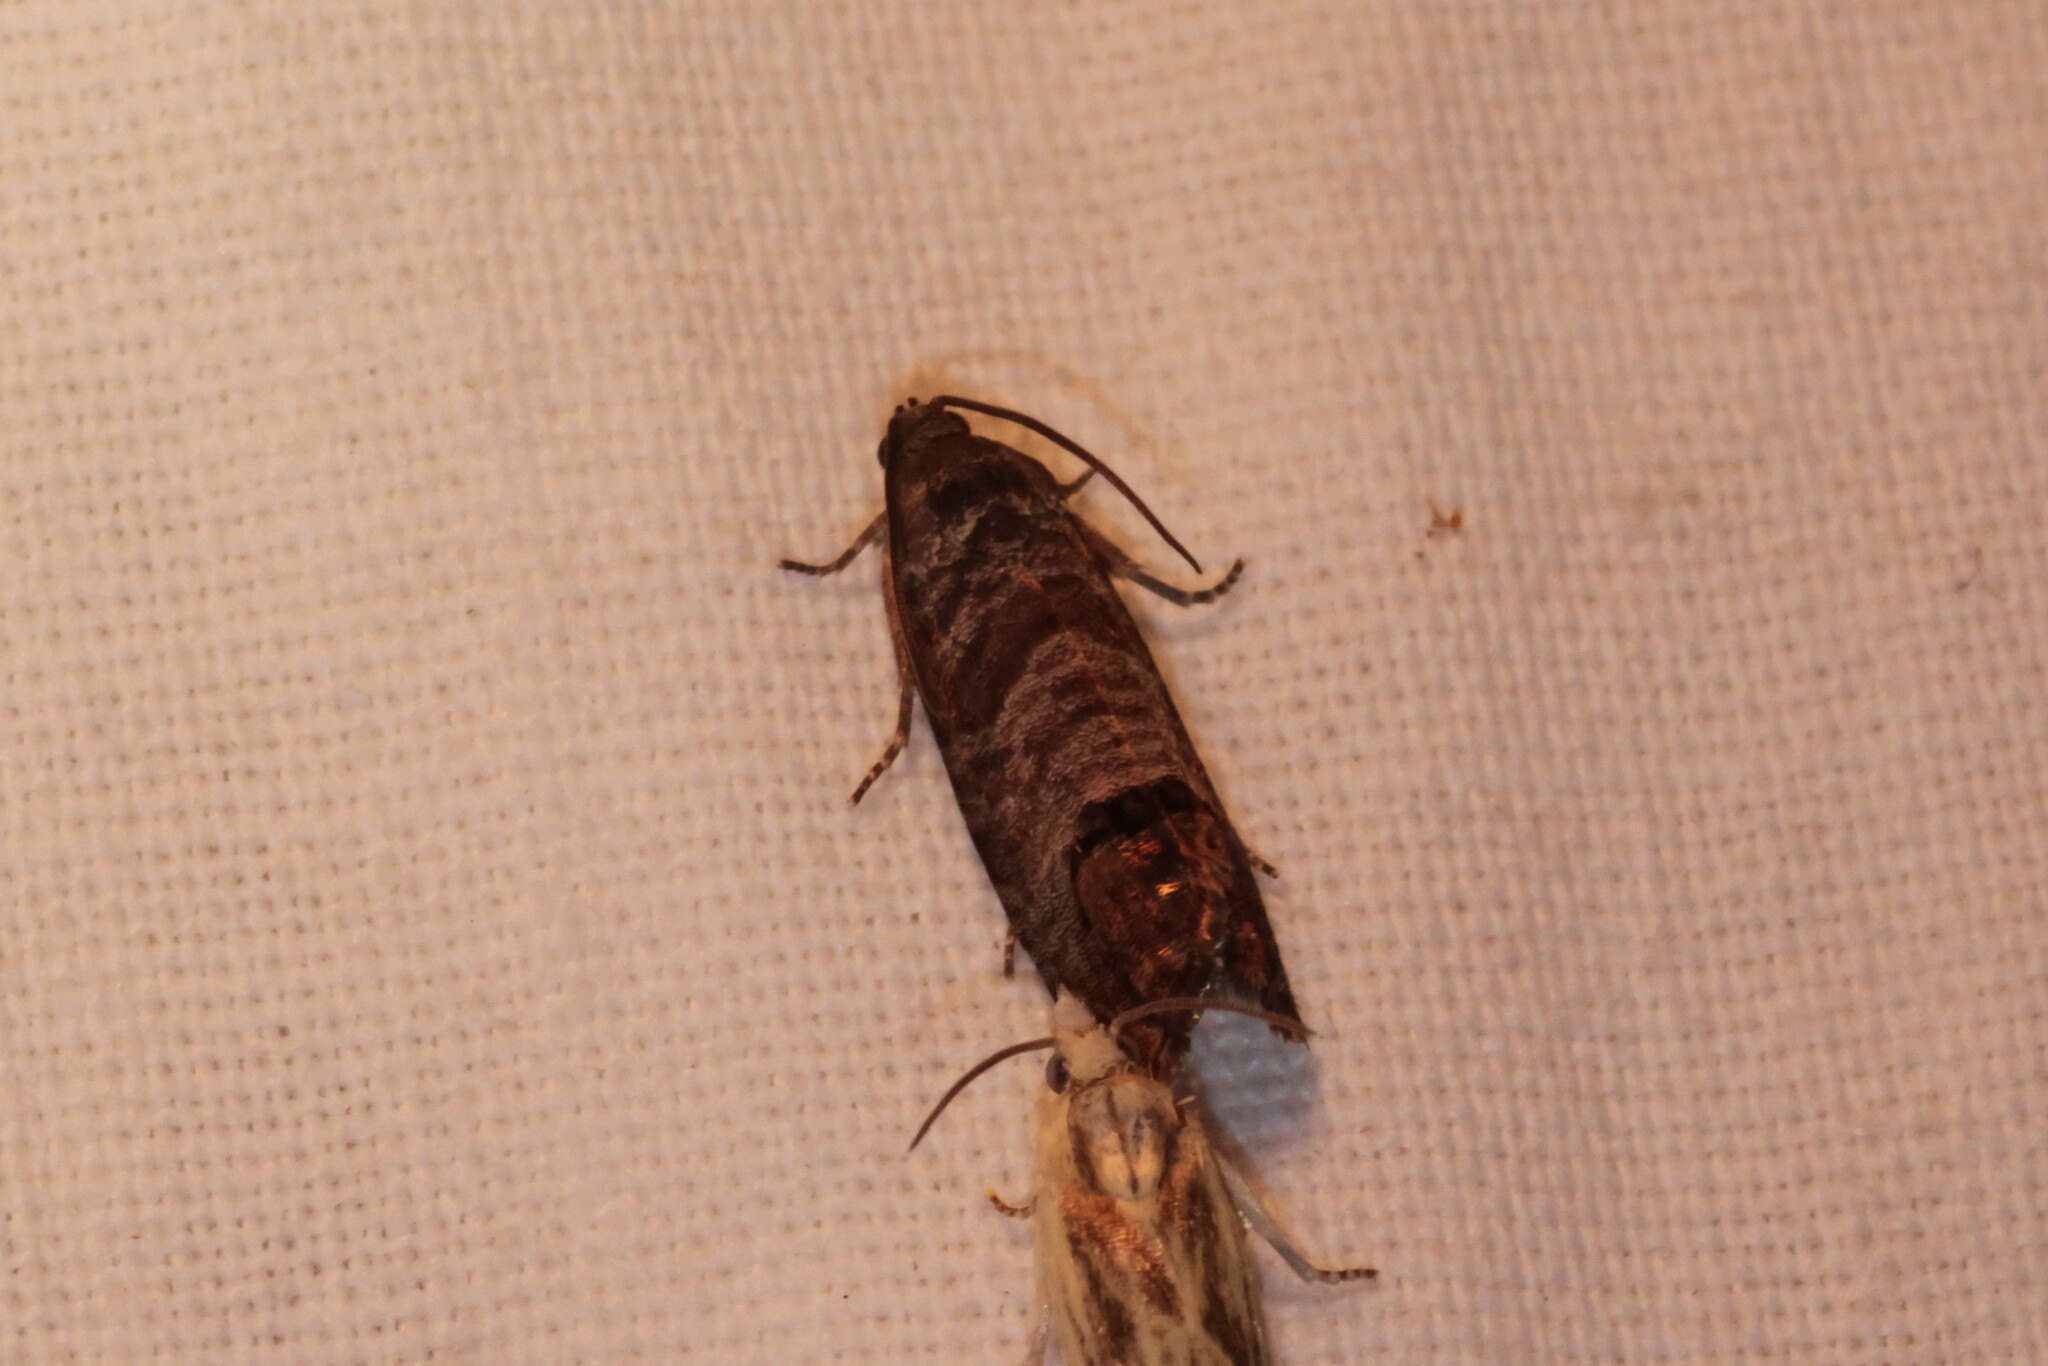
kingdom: Animalia
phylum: Arthropoda
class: Insecta
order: Lepidoptera
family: Tortricidae
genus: Cydia
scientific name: Cydia pomonella
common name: Codling moth
